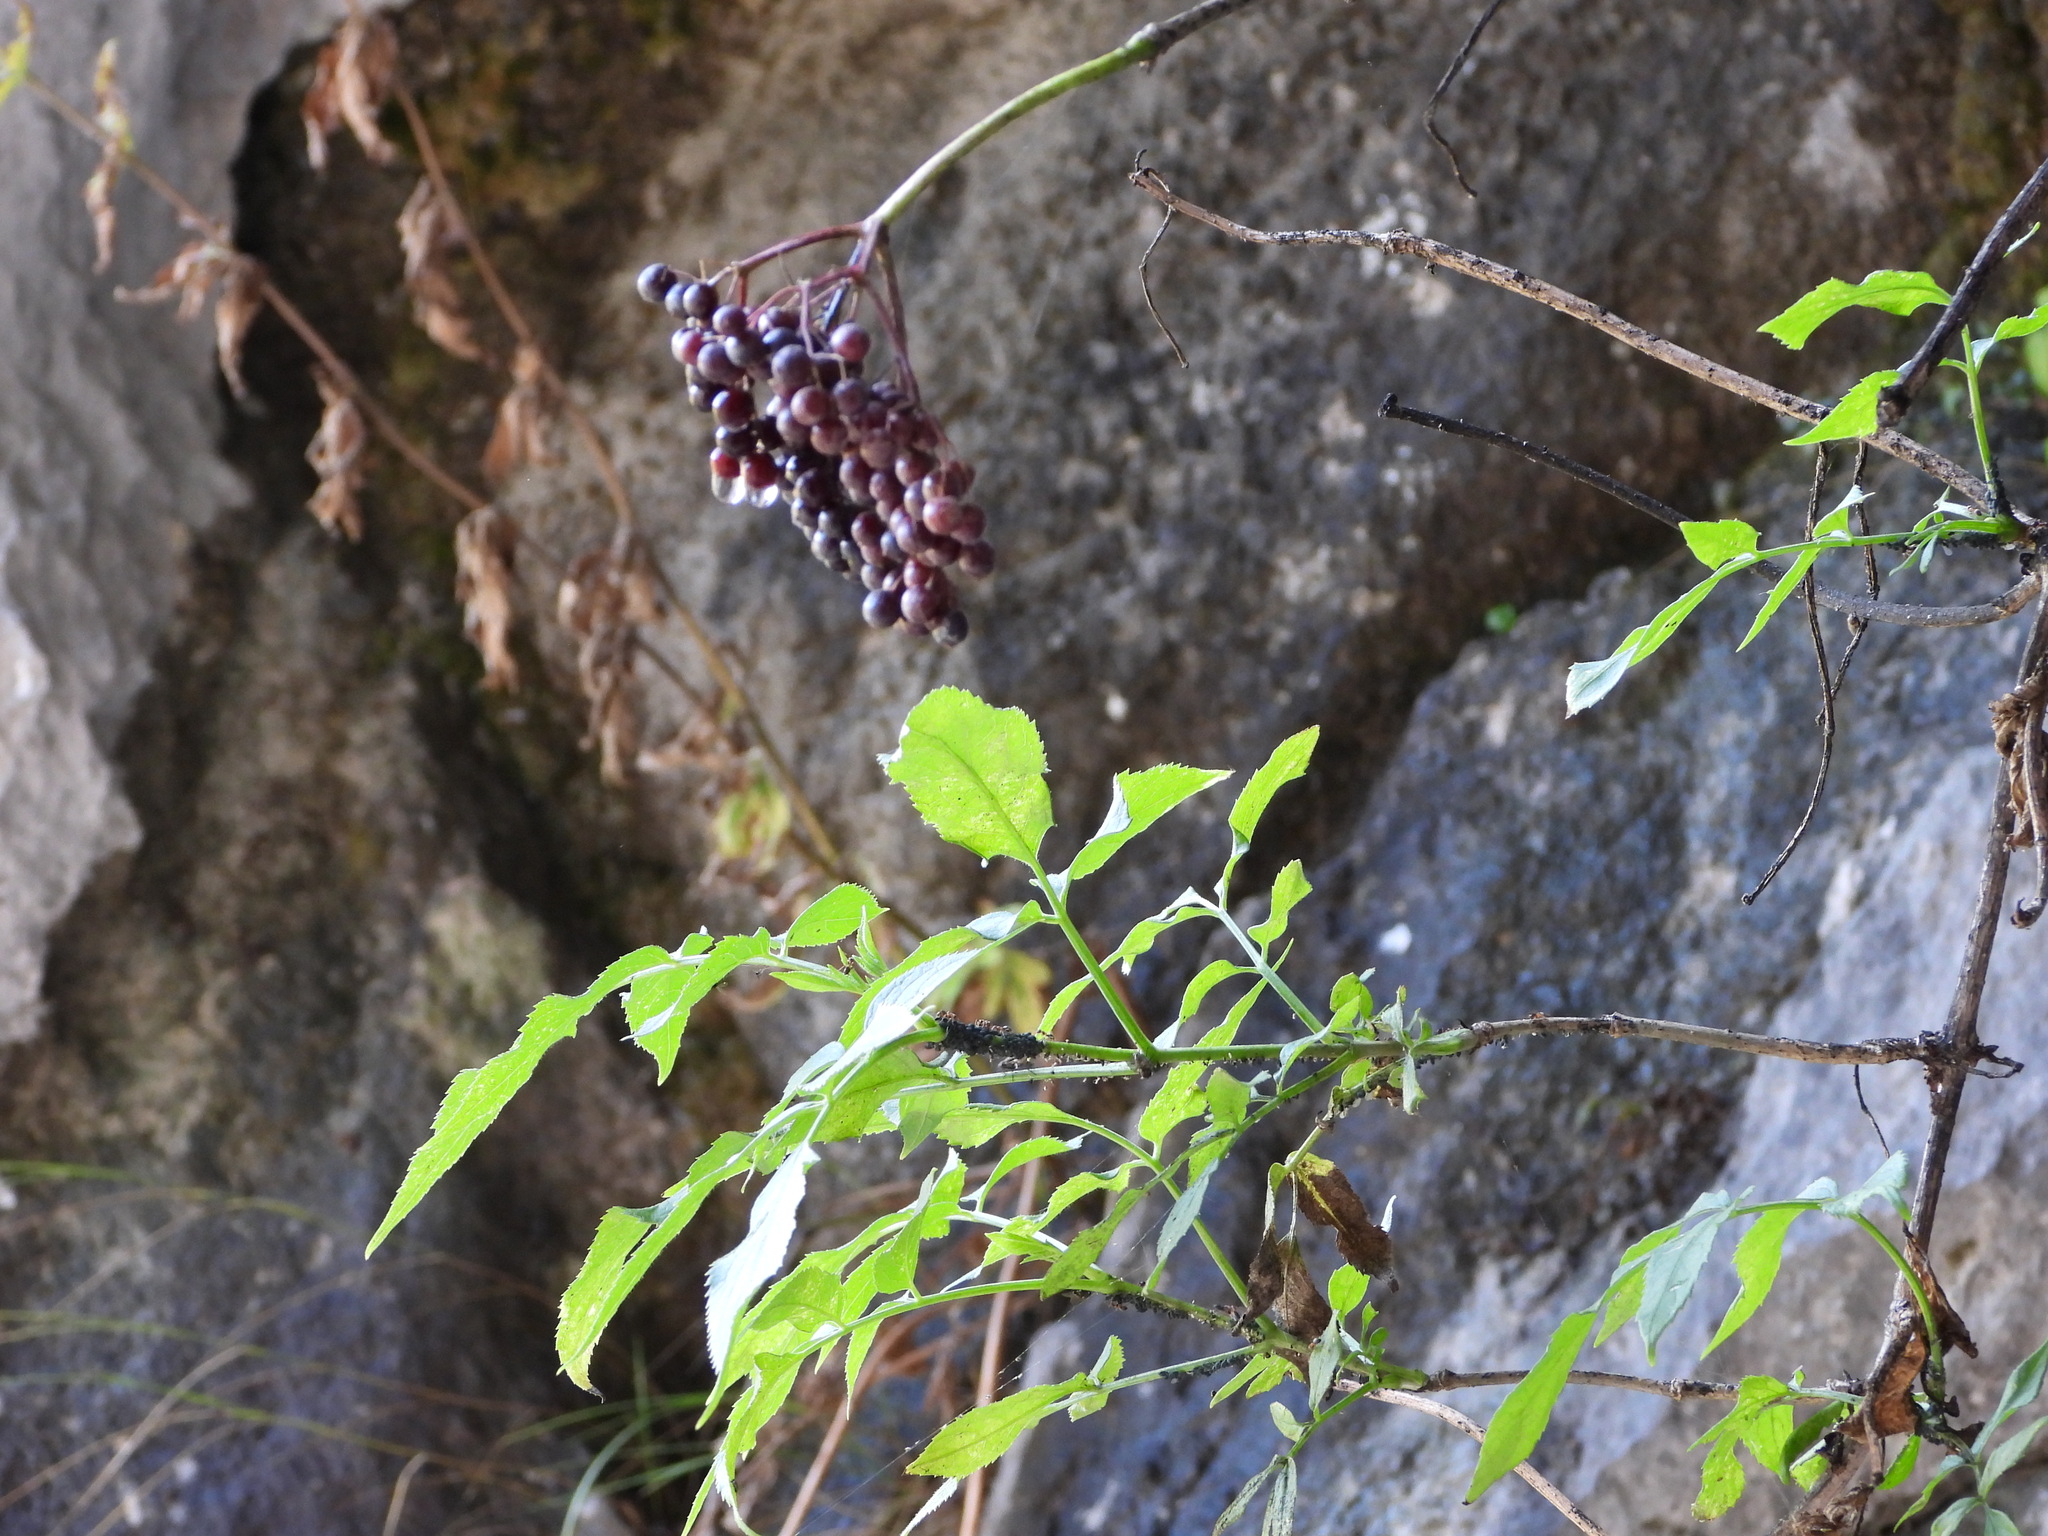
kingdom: Plantae
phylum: Tracheophyta
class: Magnoliopsida
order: Dipsacales
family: Viburnaceae
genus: Sambucus
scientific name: Sambucus nigra
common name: Elder
